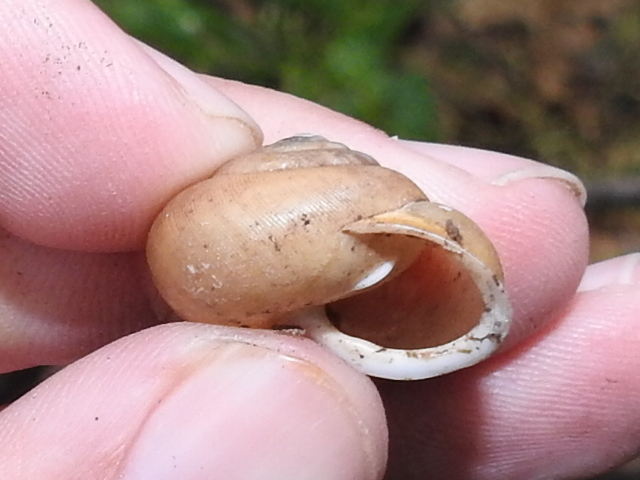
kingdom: Animalia
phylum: Mollusca
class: Gastropoda
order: Stylommatophora
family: Polygyridae
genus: Mesodon
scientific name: Mesodon thyroidus
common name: White-lip globe
